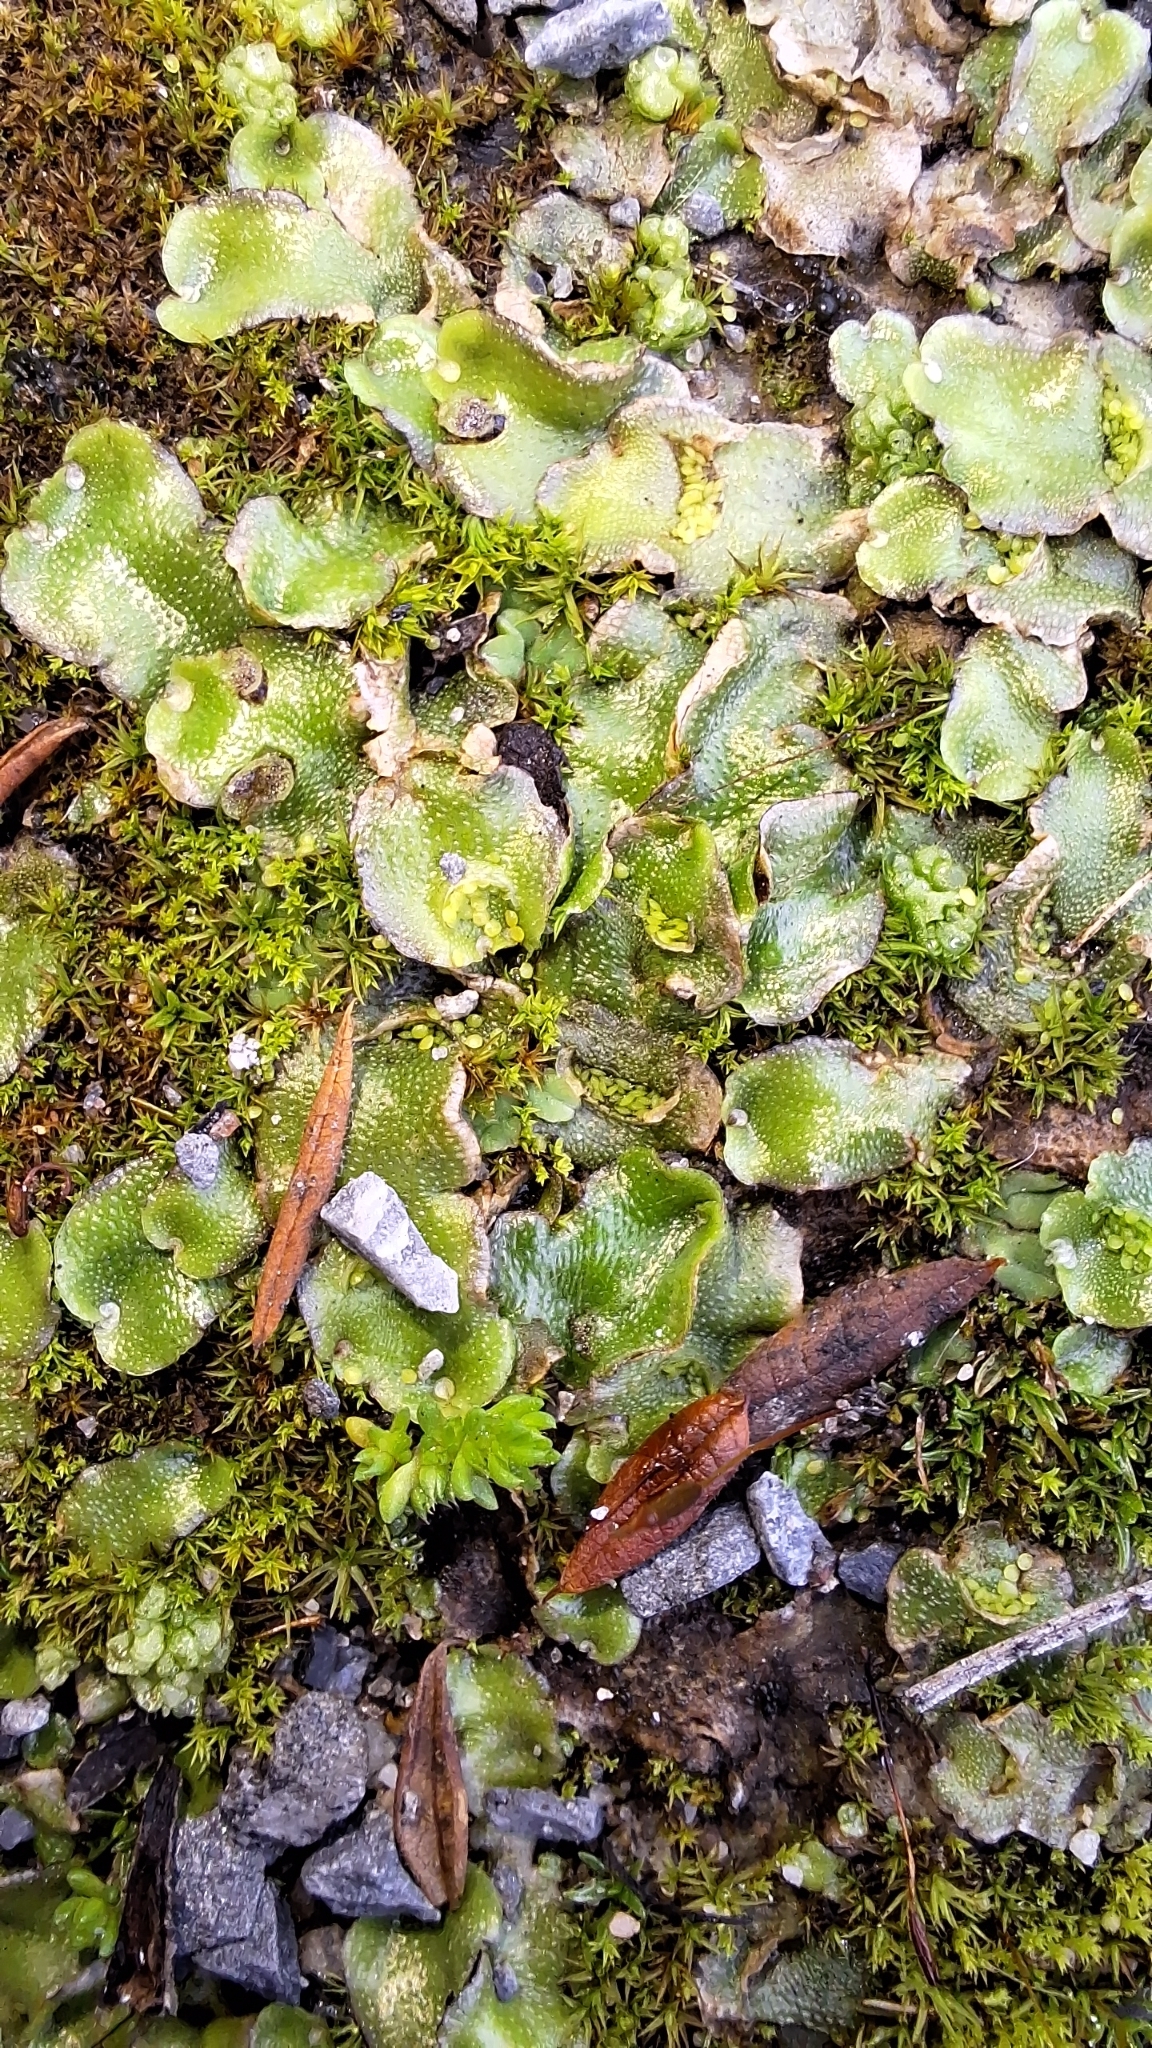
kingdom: Plantae
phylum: Marchantiophyta
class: Marchantiopsida
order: Lunulariales
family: Lunulariaceae
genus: Lunularia
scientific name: Lunularia cruciata
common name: Crescent-cup liverwort
